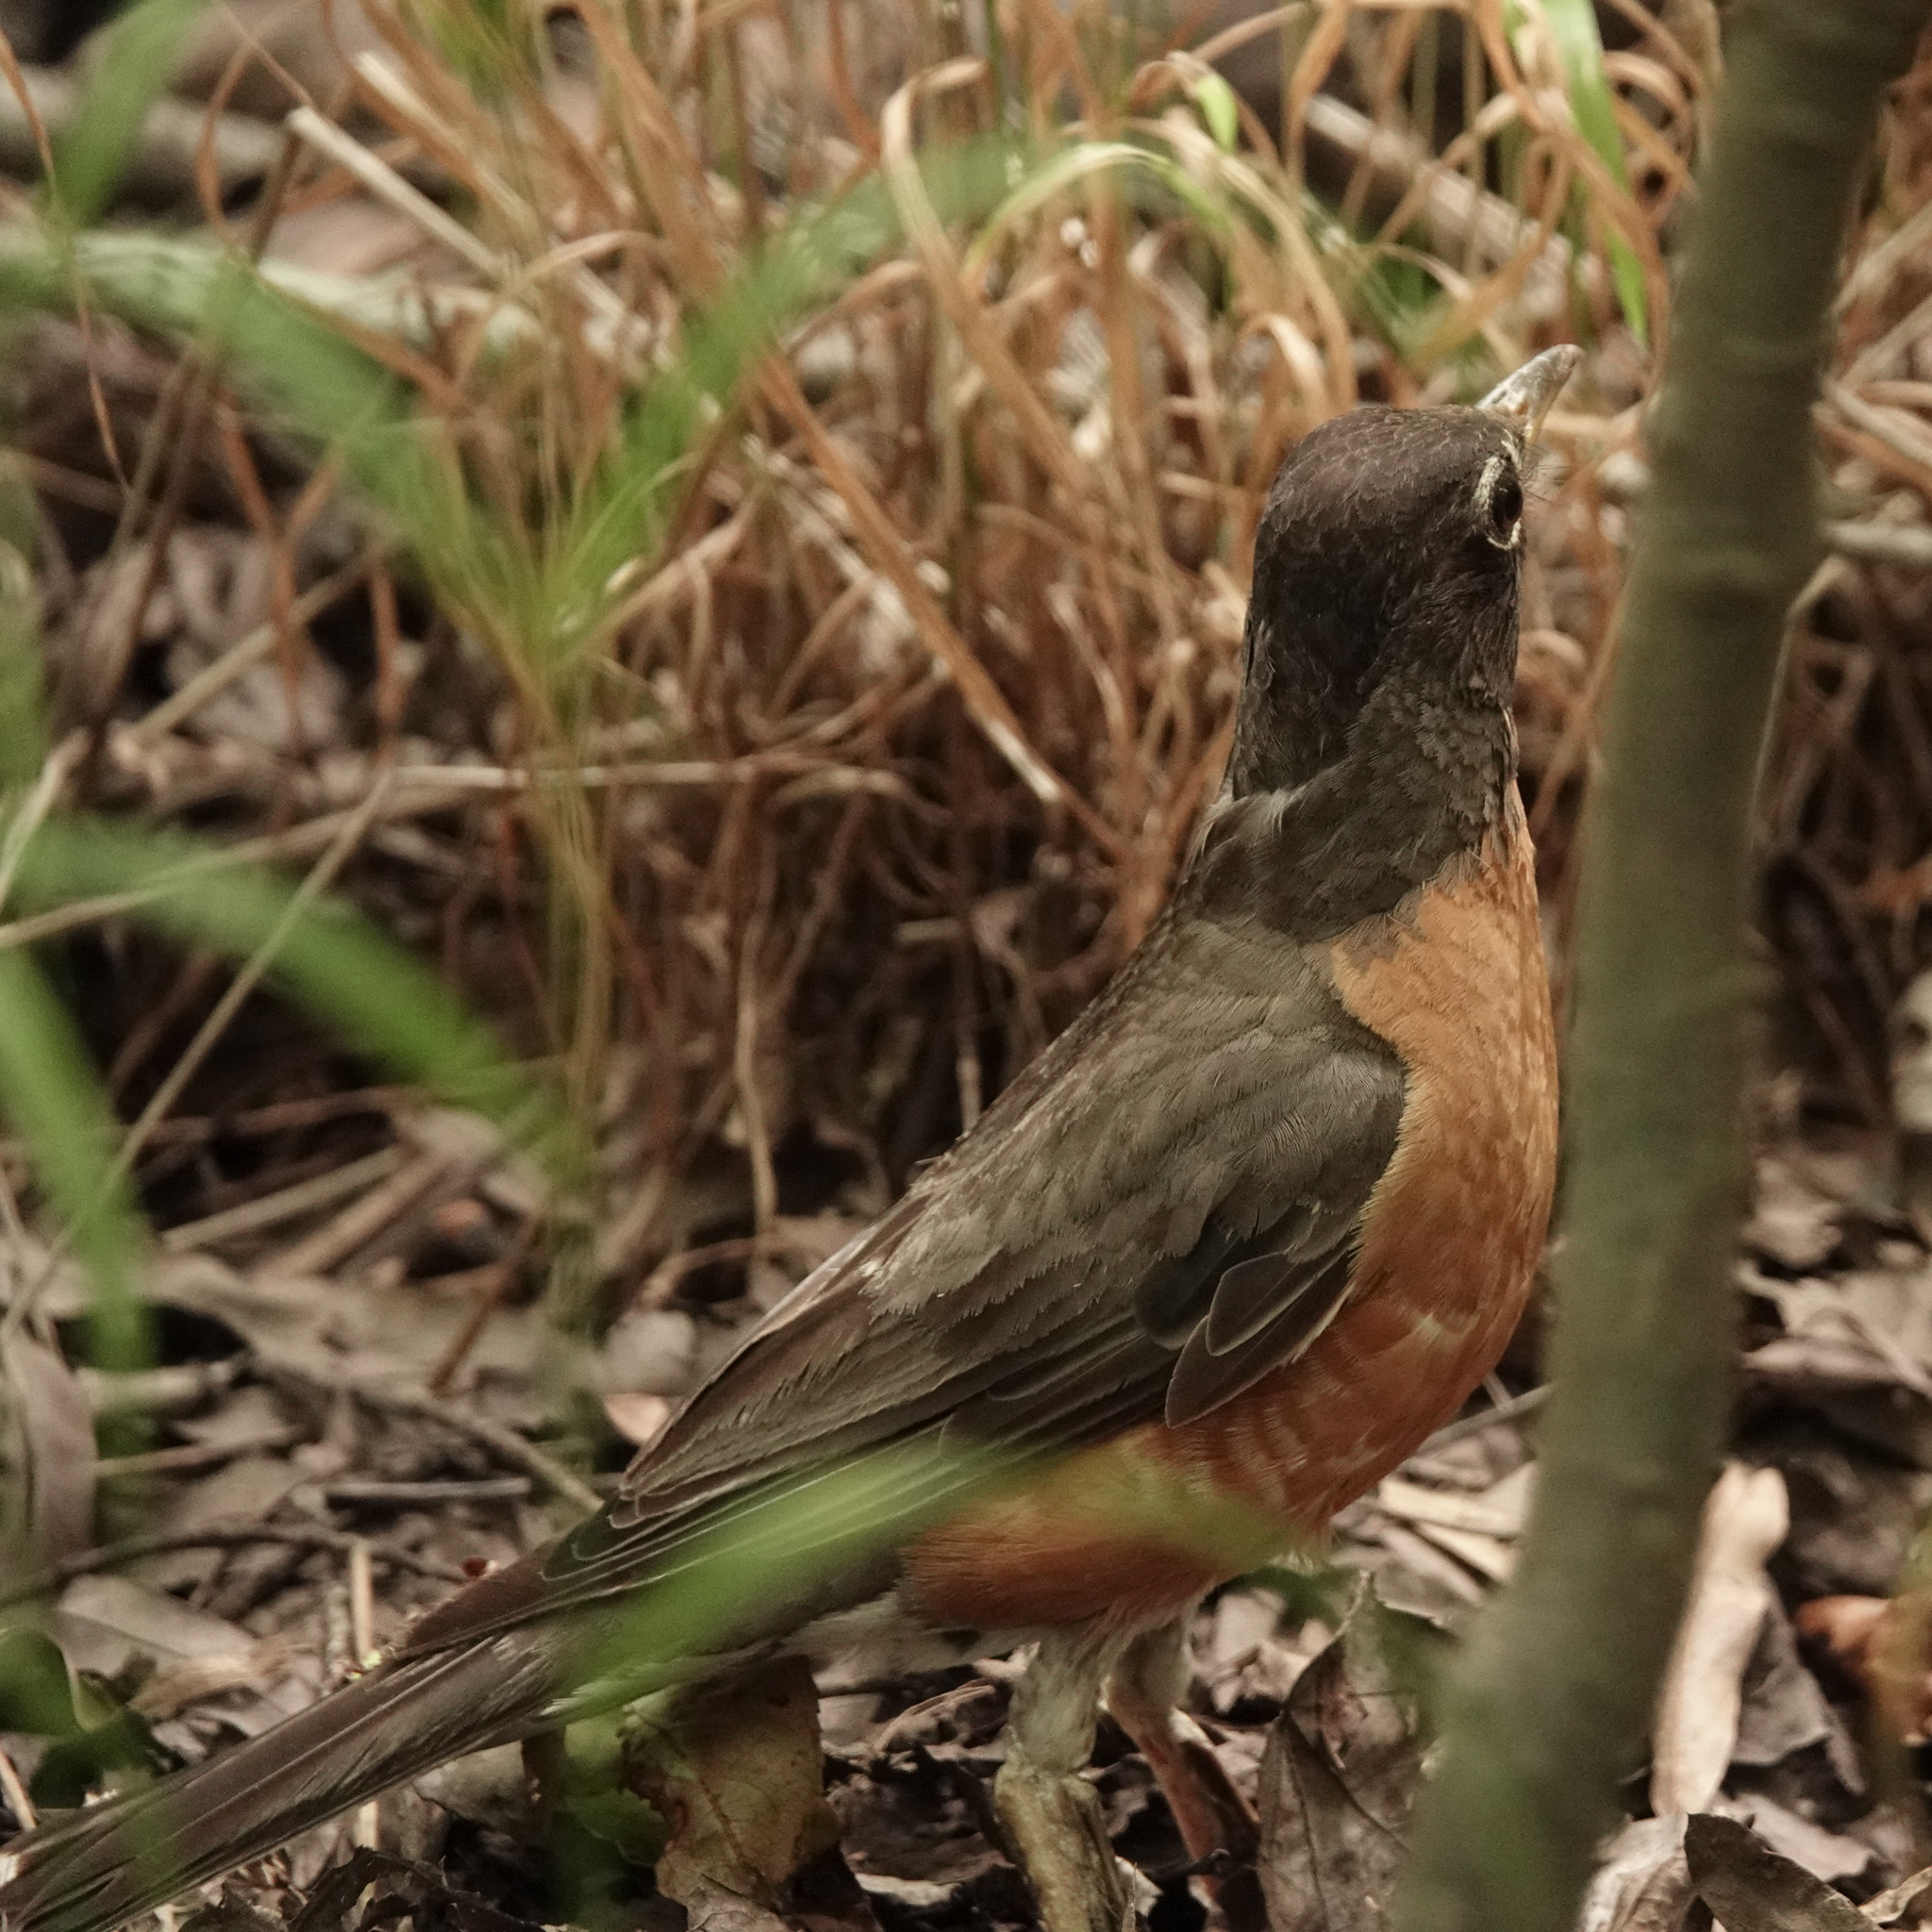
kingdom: Animalia
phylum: Chordata
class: Aves
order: Passeriformes
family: Turdidae
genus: Turdus
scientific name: Turdus migratorius
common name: American robin
